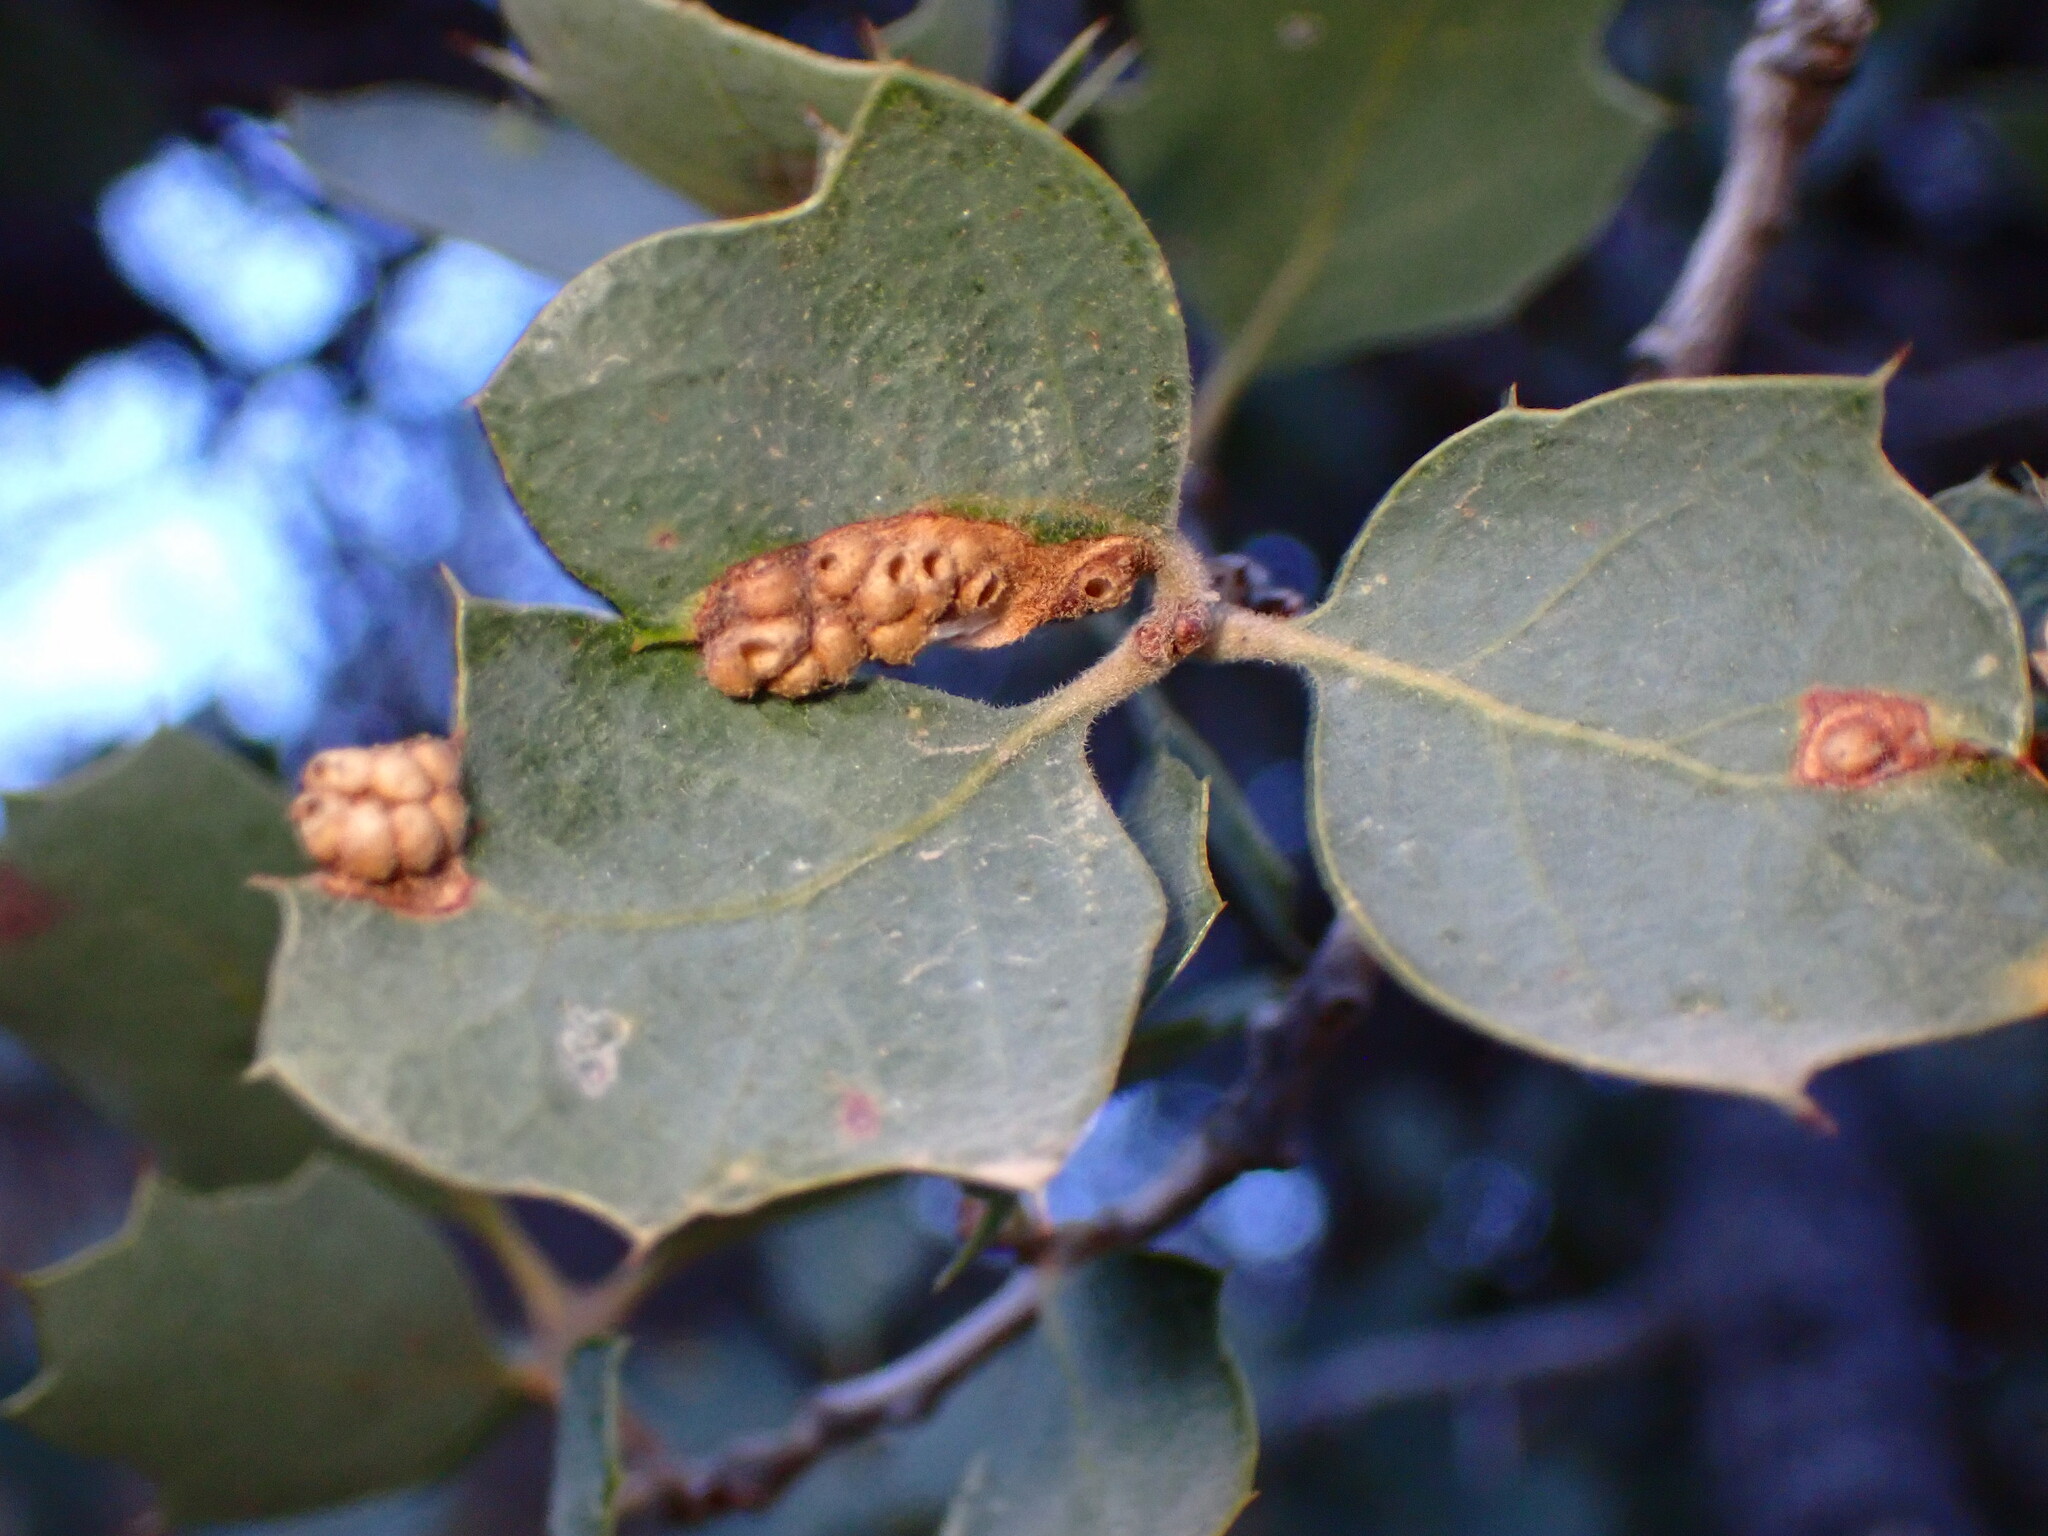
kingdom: Animalia
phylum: Arthropoda
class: Insecta
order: Hymenoptera
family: Cynipidae
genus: Neuroterus
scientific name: Neuroterus saltarius
